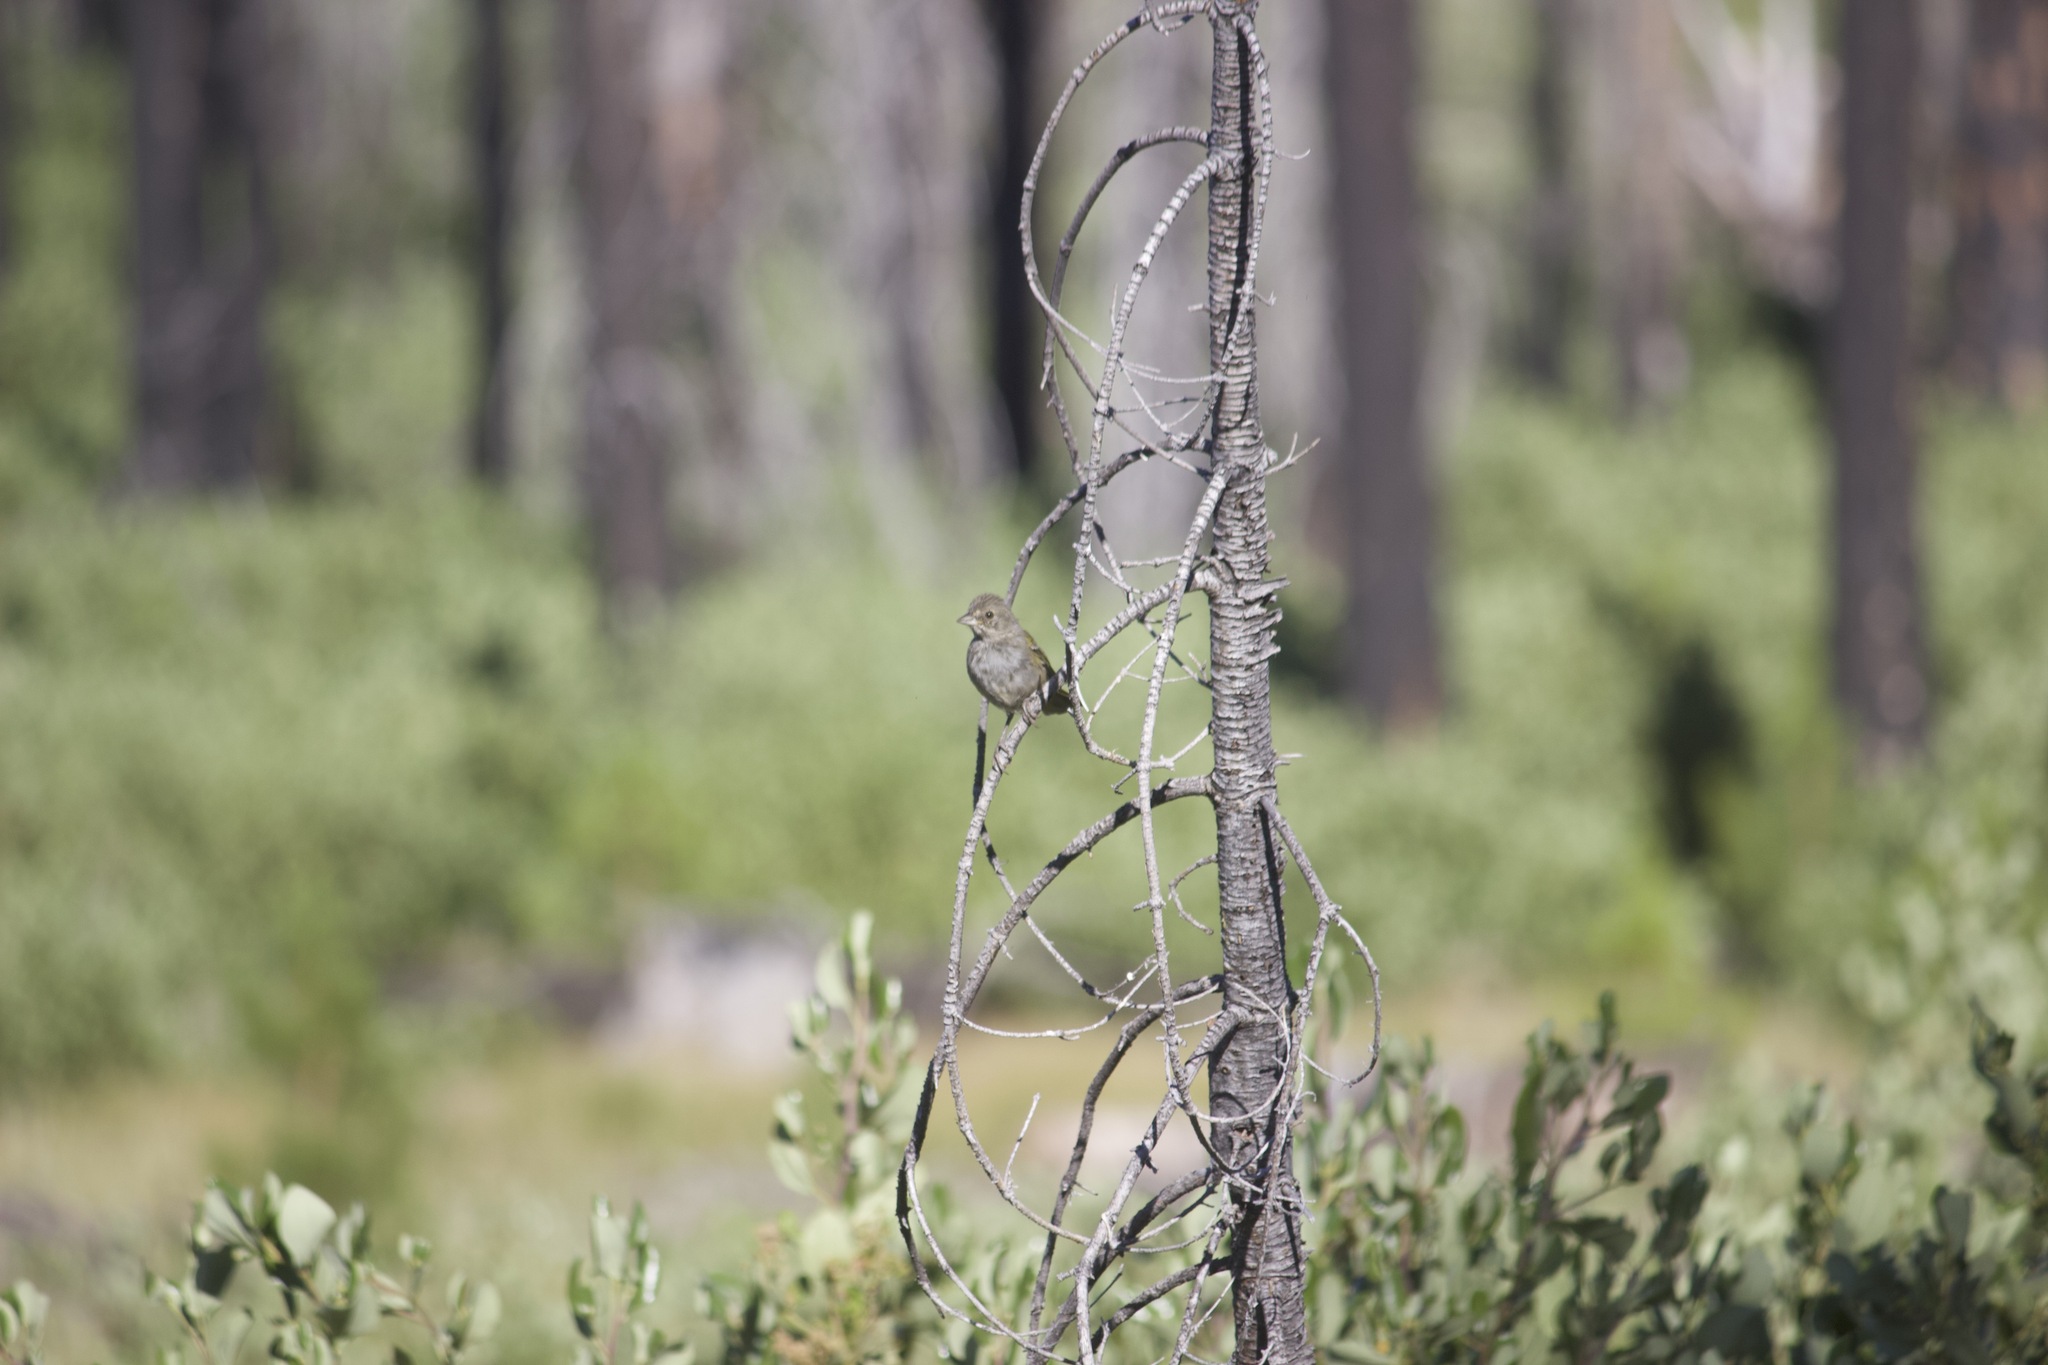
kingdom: Animalia
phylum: Chordata
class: Aves
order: Passeriformes
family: Passerellidae
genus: Pipilo
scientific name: Pipilo chlorurus
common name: Green-tailed towhee
